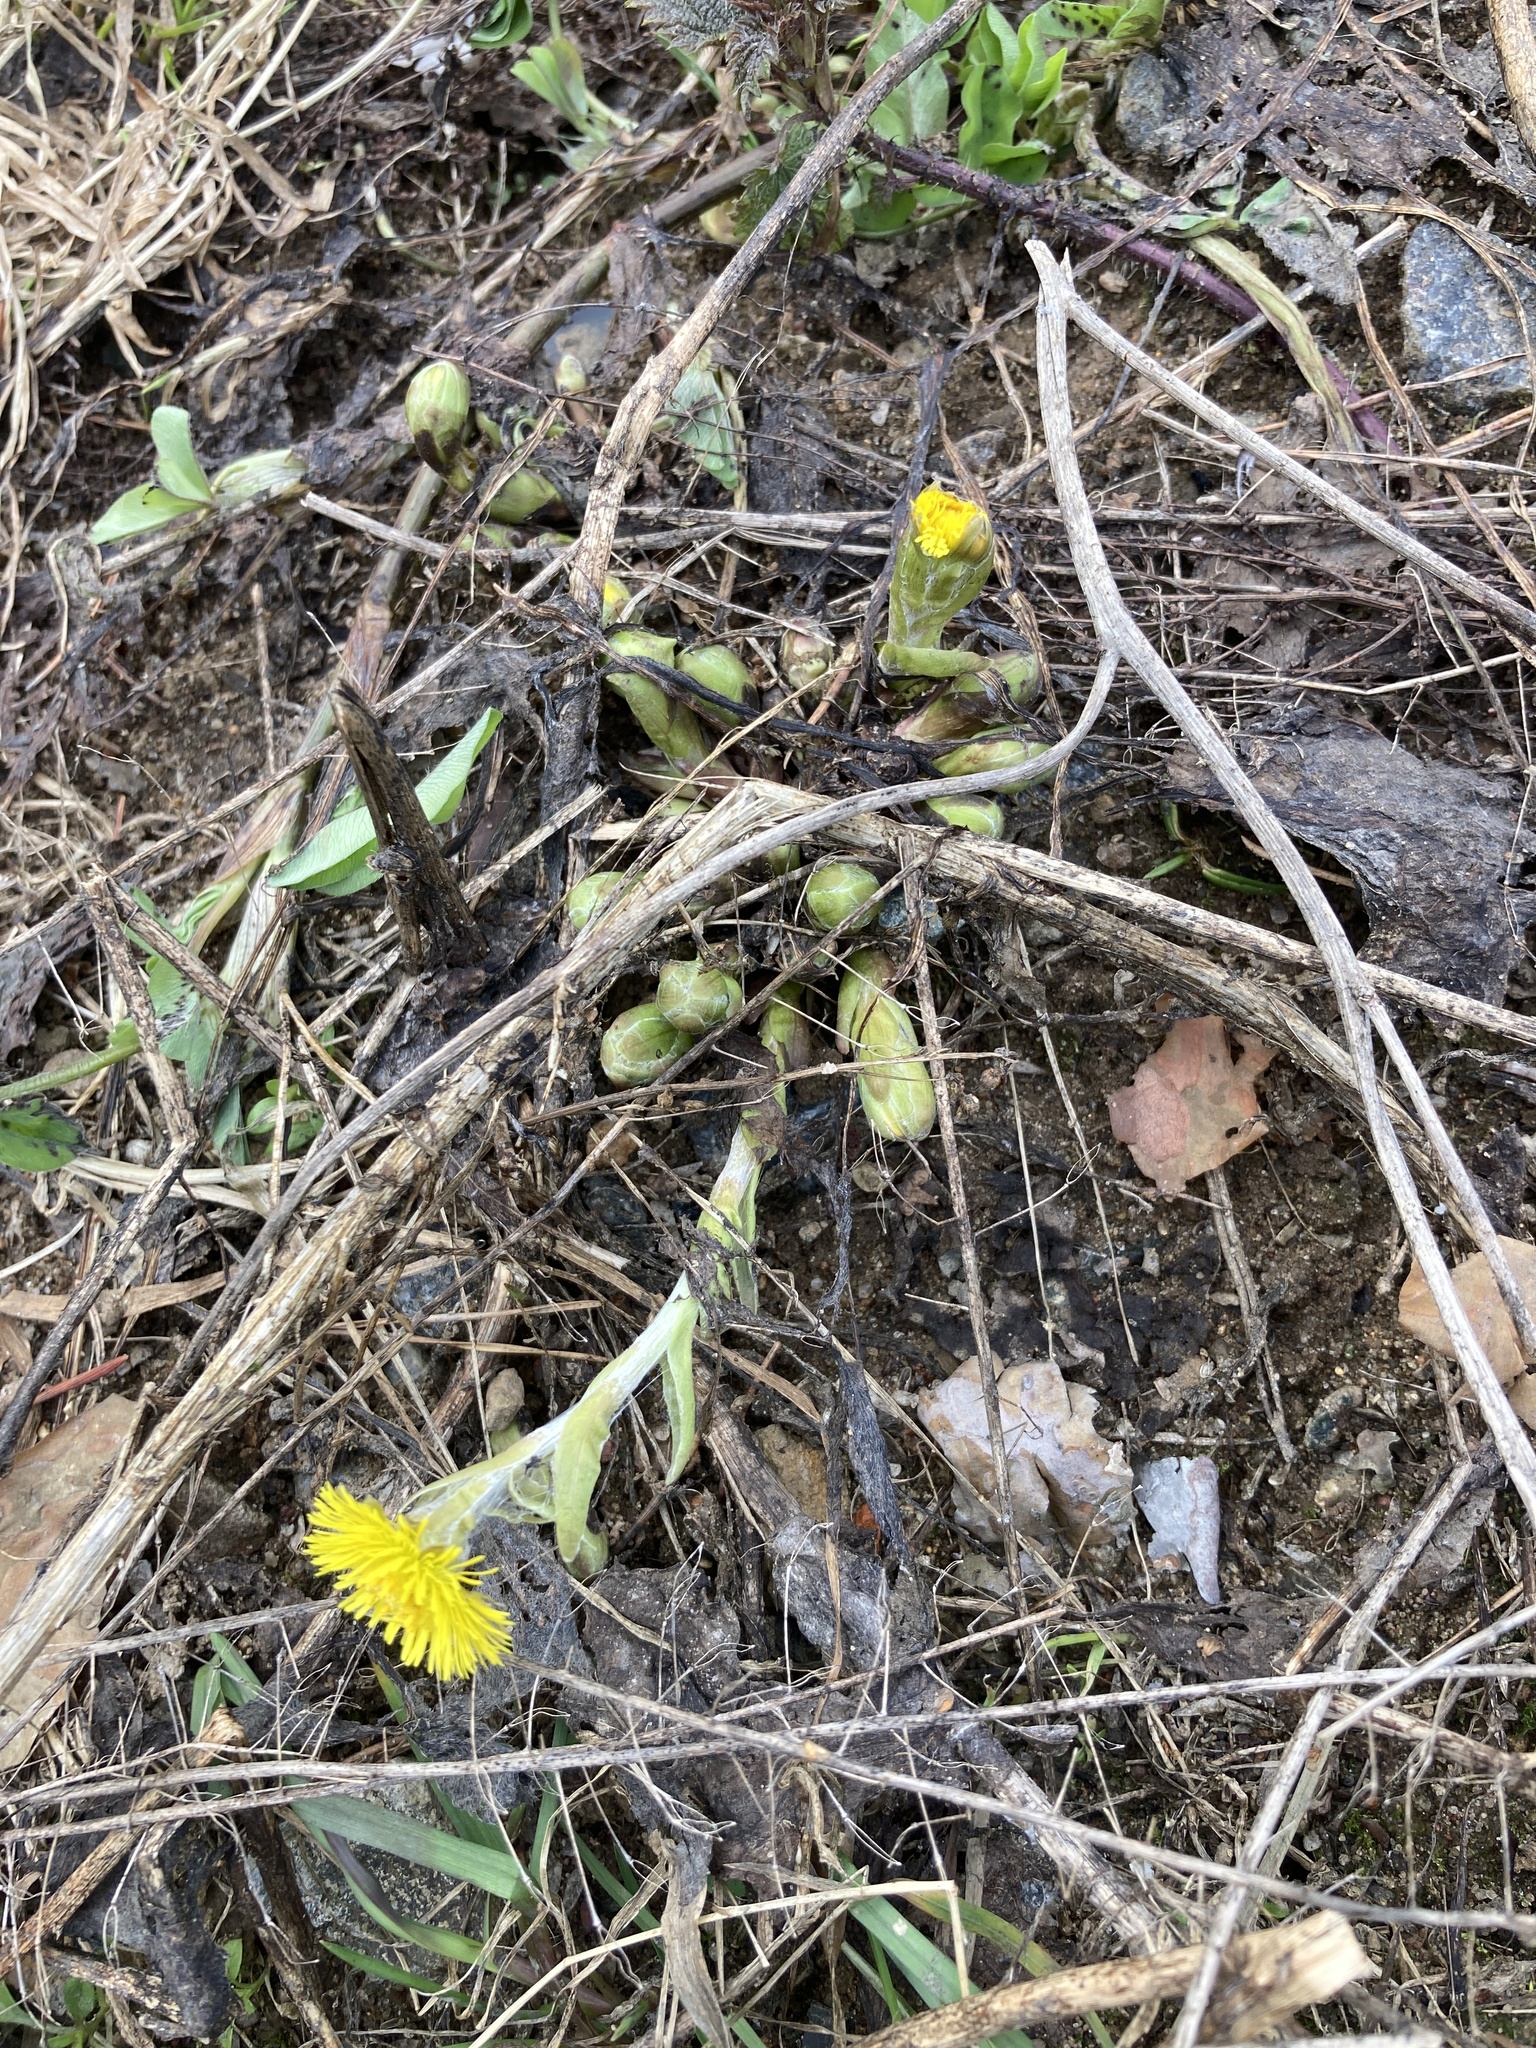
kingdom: Plantae
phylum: Tracheophyta
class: Magnoliopsida
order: Asterales
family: Asteraceae
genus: Tussilago
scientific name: Tussilago farfara
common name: Coltsfoot
